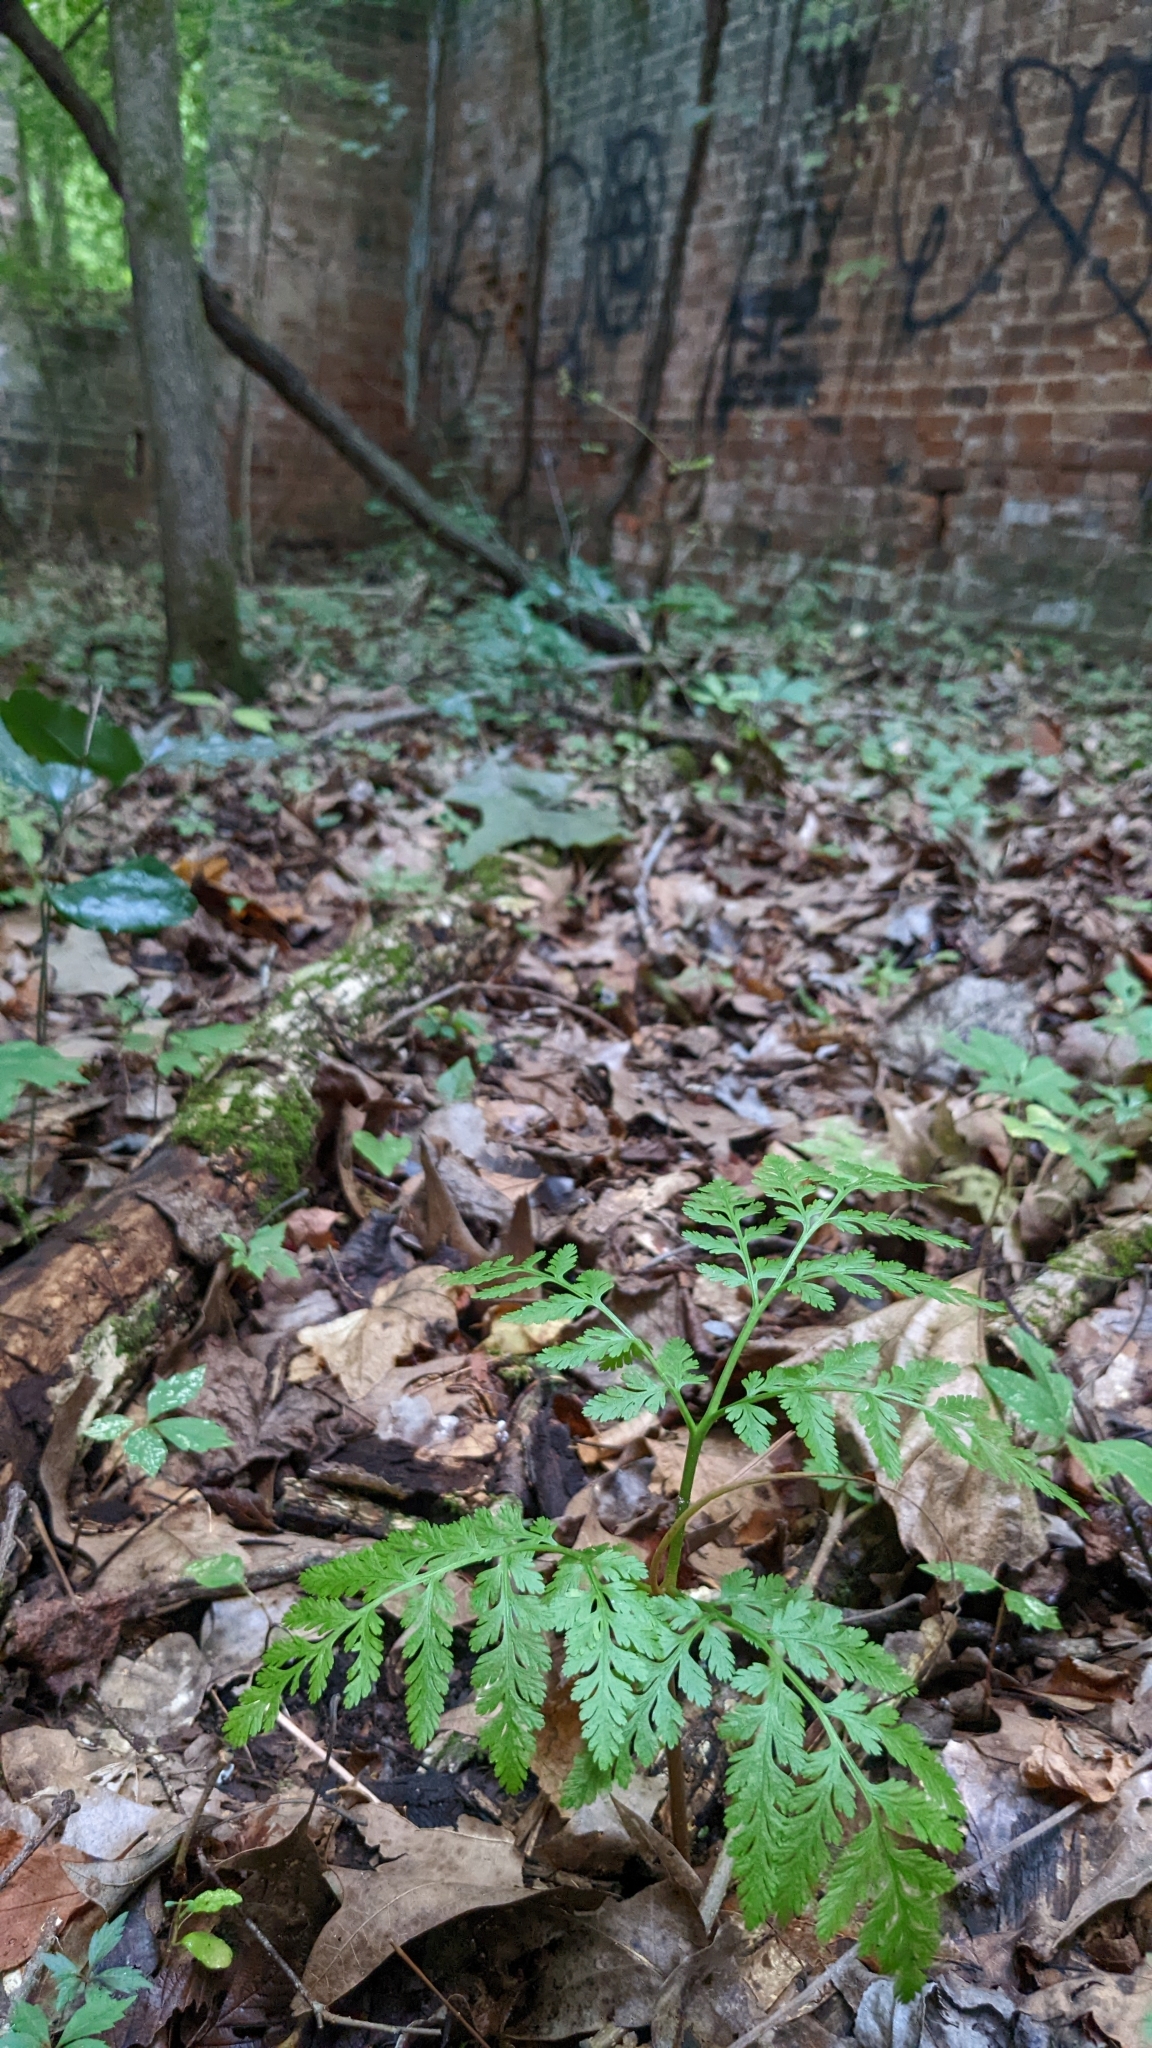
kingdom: Plantae
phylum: Tracheophyta
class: Polypodiopsida
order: Ophioglossales
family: Ophioglossaceae
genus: Botrypus
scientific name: Botrypus virginianus
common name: Common grapefern
